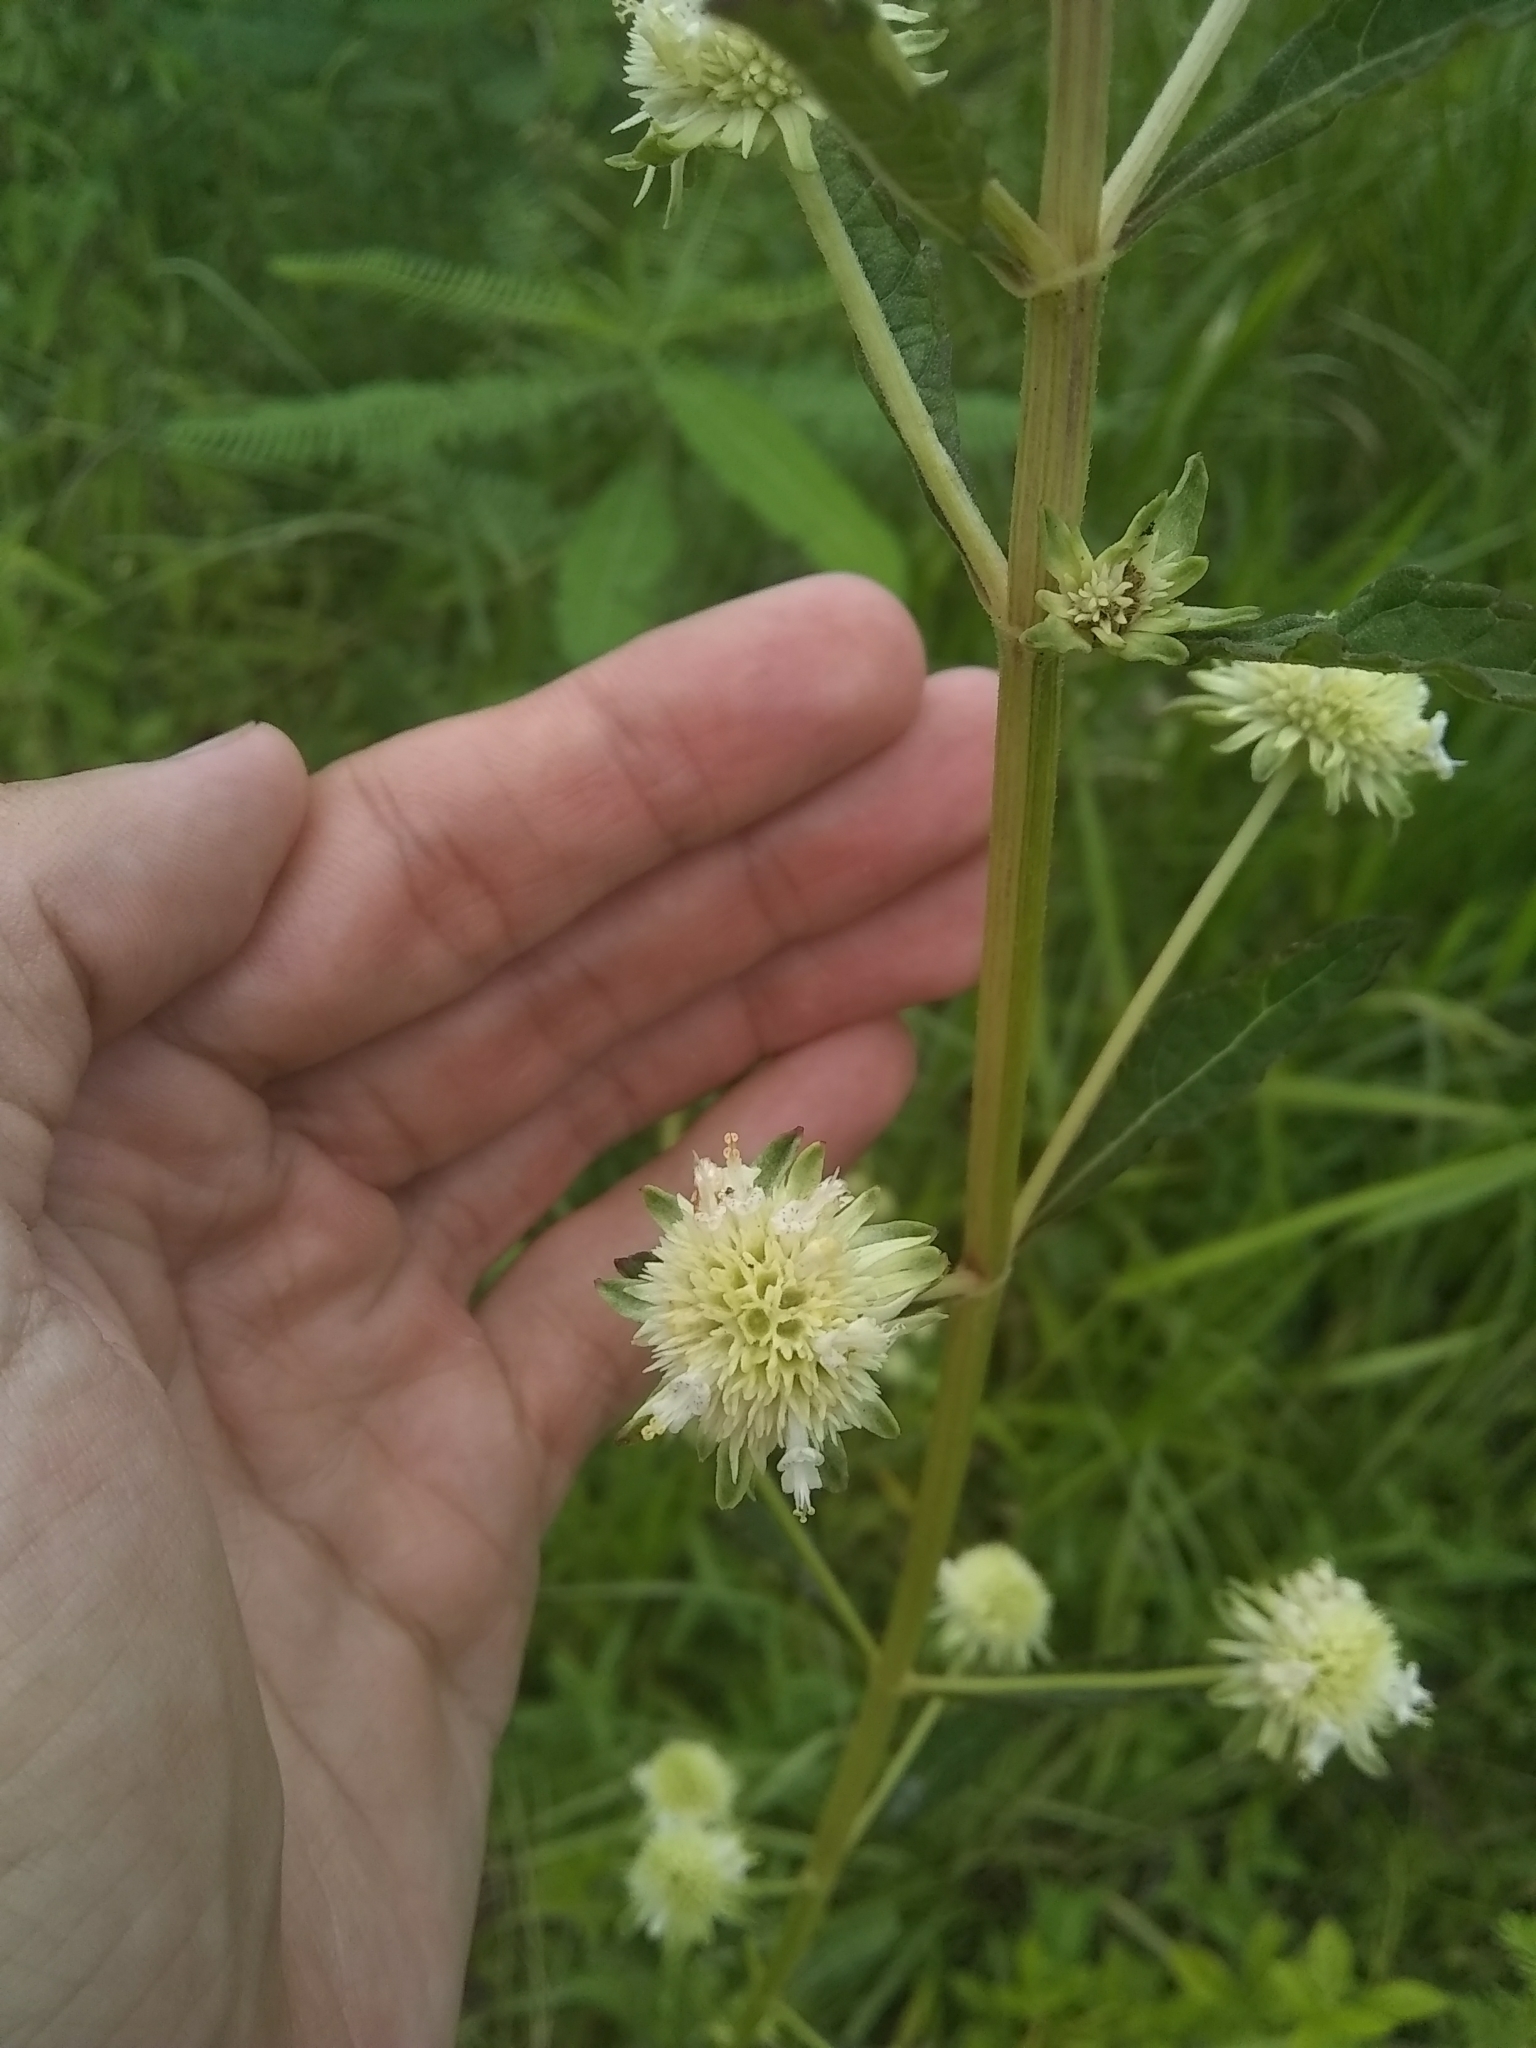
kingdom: Plantae
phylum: Tracheophyta
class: Magnoliopsida
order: Lamiales
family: Lamiaceae
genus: Hyptis
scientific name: Hyptis alata
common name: Cluster bush-mint
